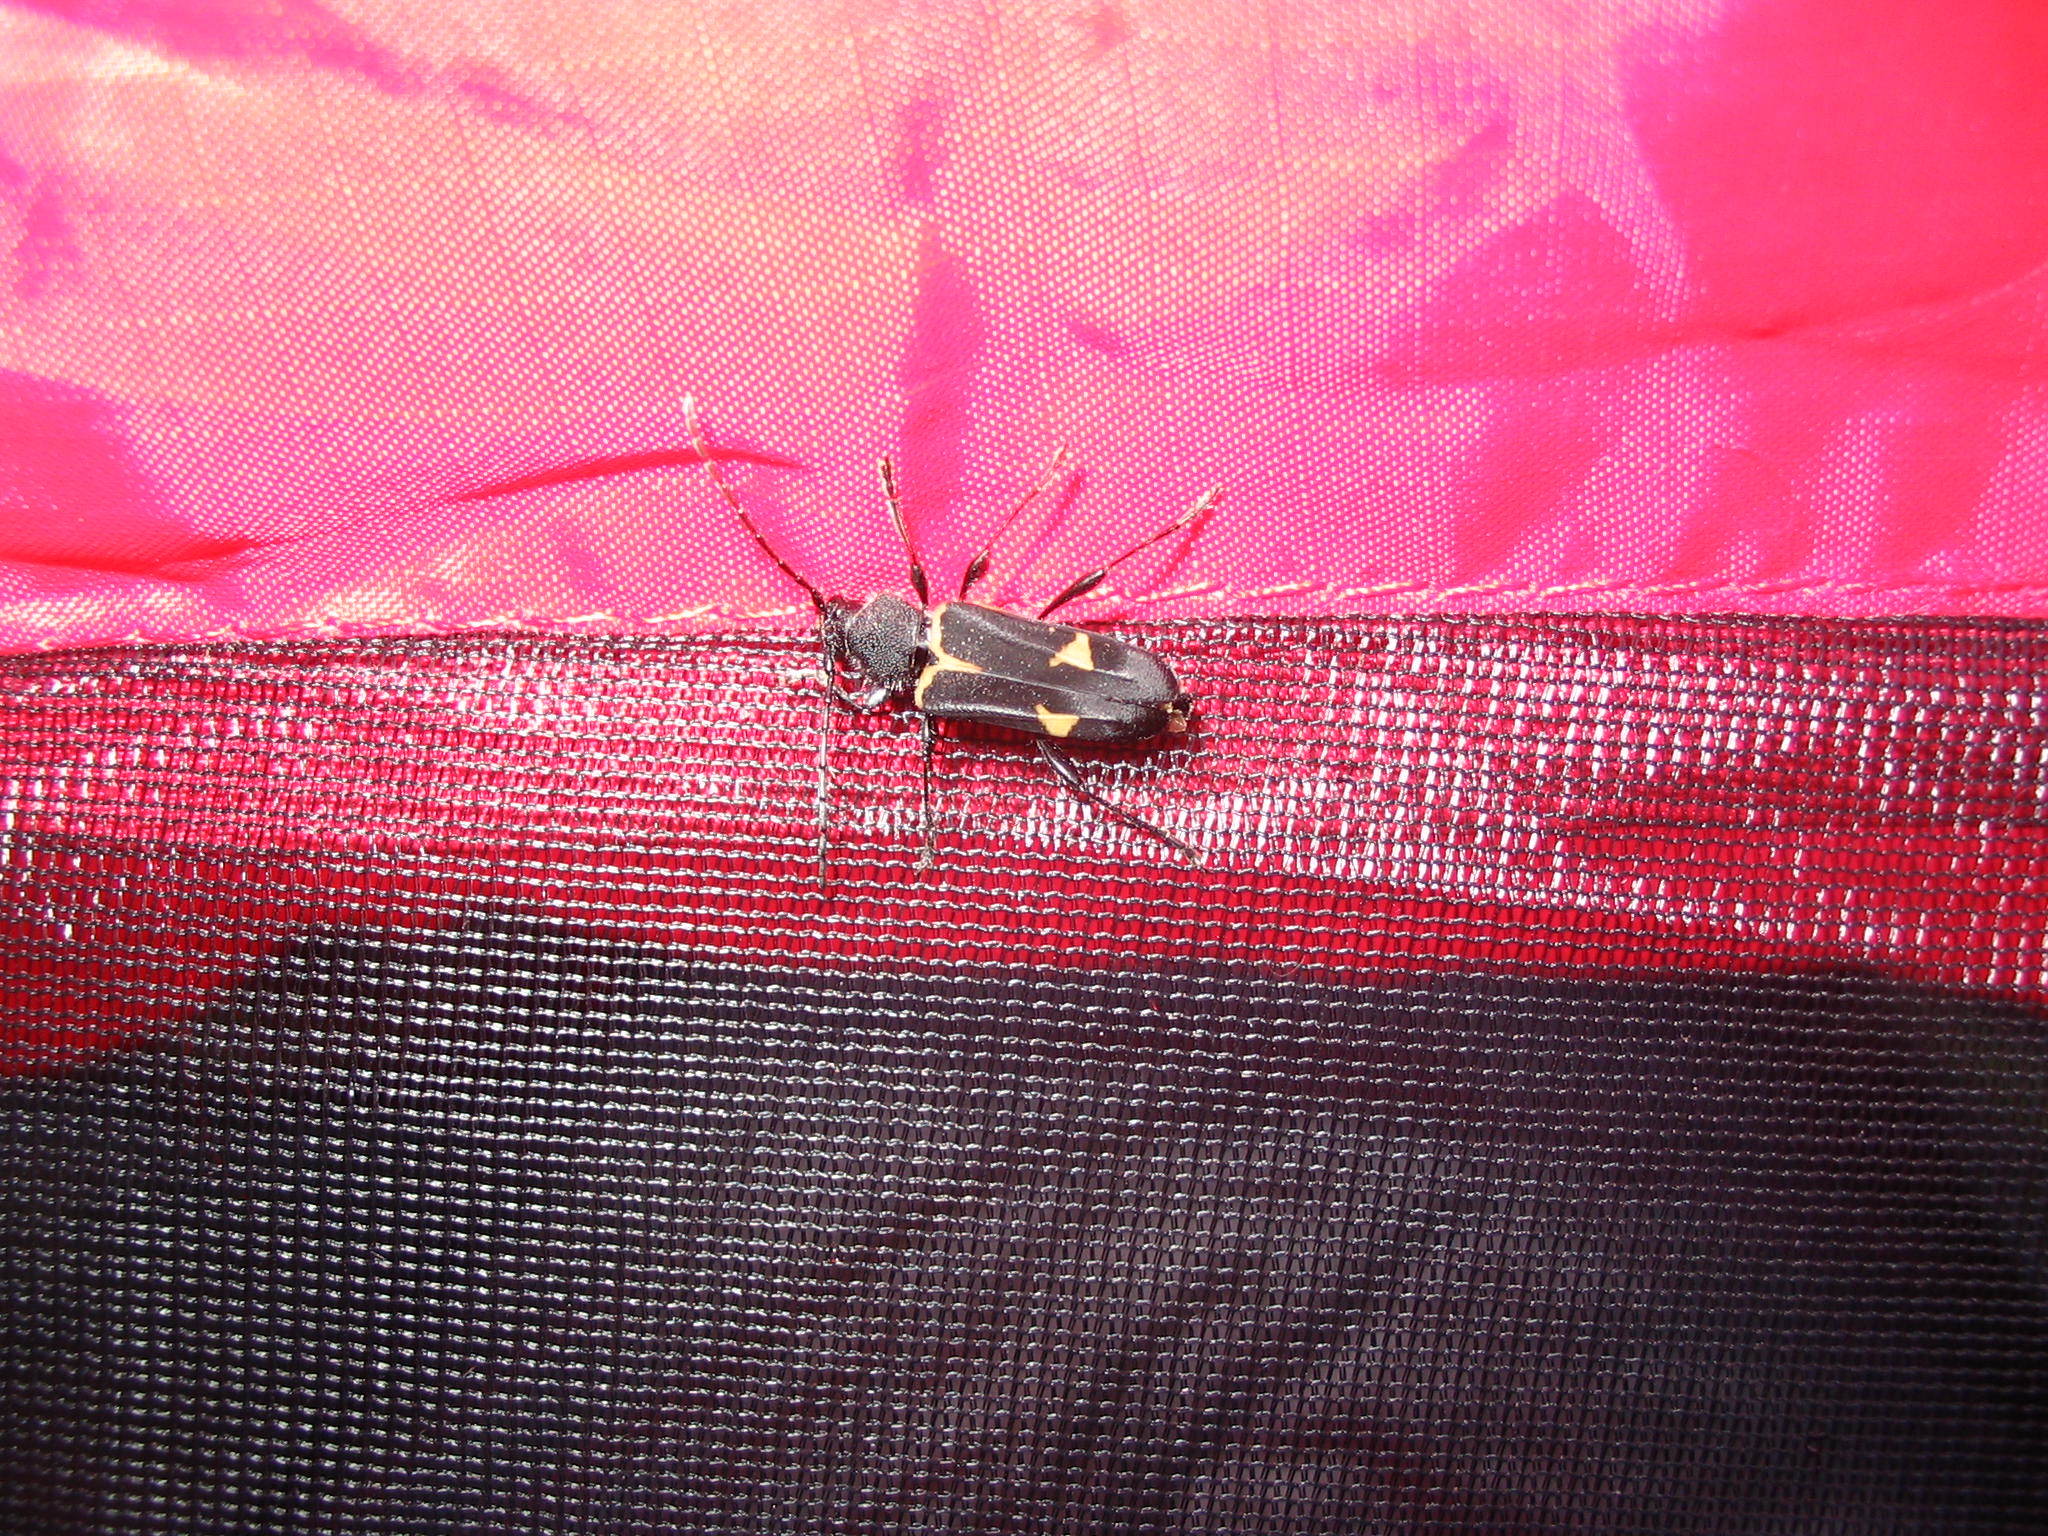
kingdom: Animalia
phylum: Arthropoda
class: Insecta
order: Coleoptera
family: Cerambycidae
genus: Calydon
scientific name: Calydon submetallicum
